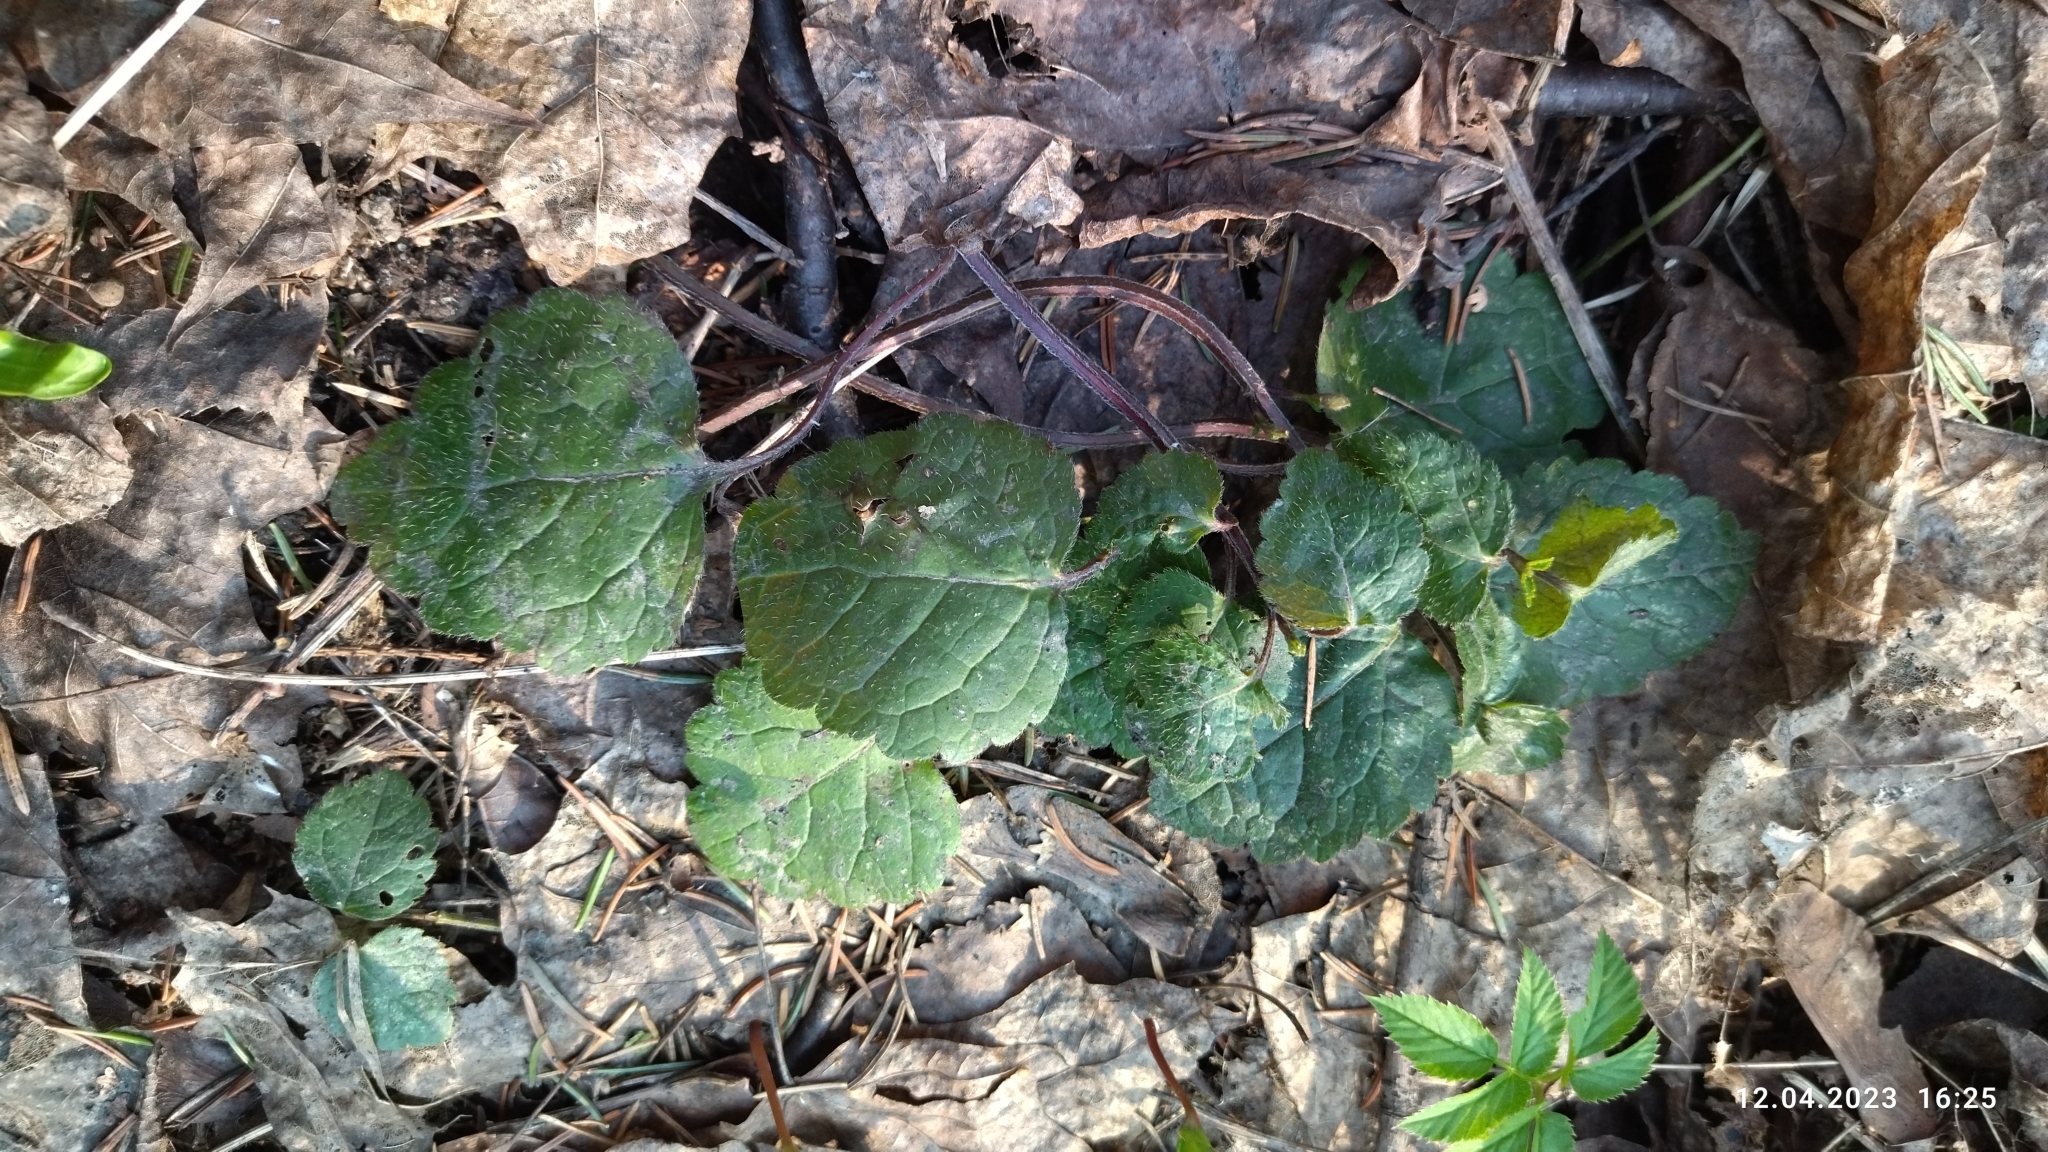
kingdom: Plantae
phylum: Tracheophyta
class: Magnoliopsida
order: Lamiales
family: Lamiaceae
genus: Lamium
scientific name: Lamium galeobdolon
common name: Yellow archangel
